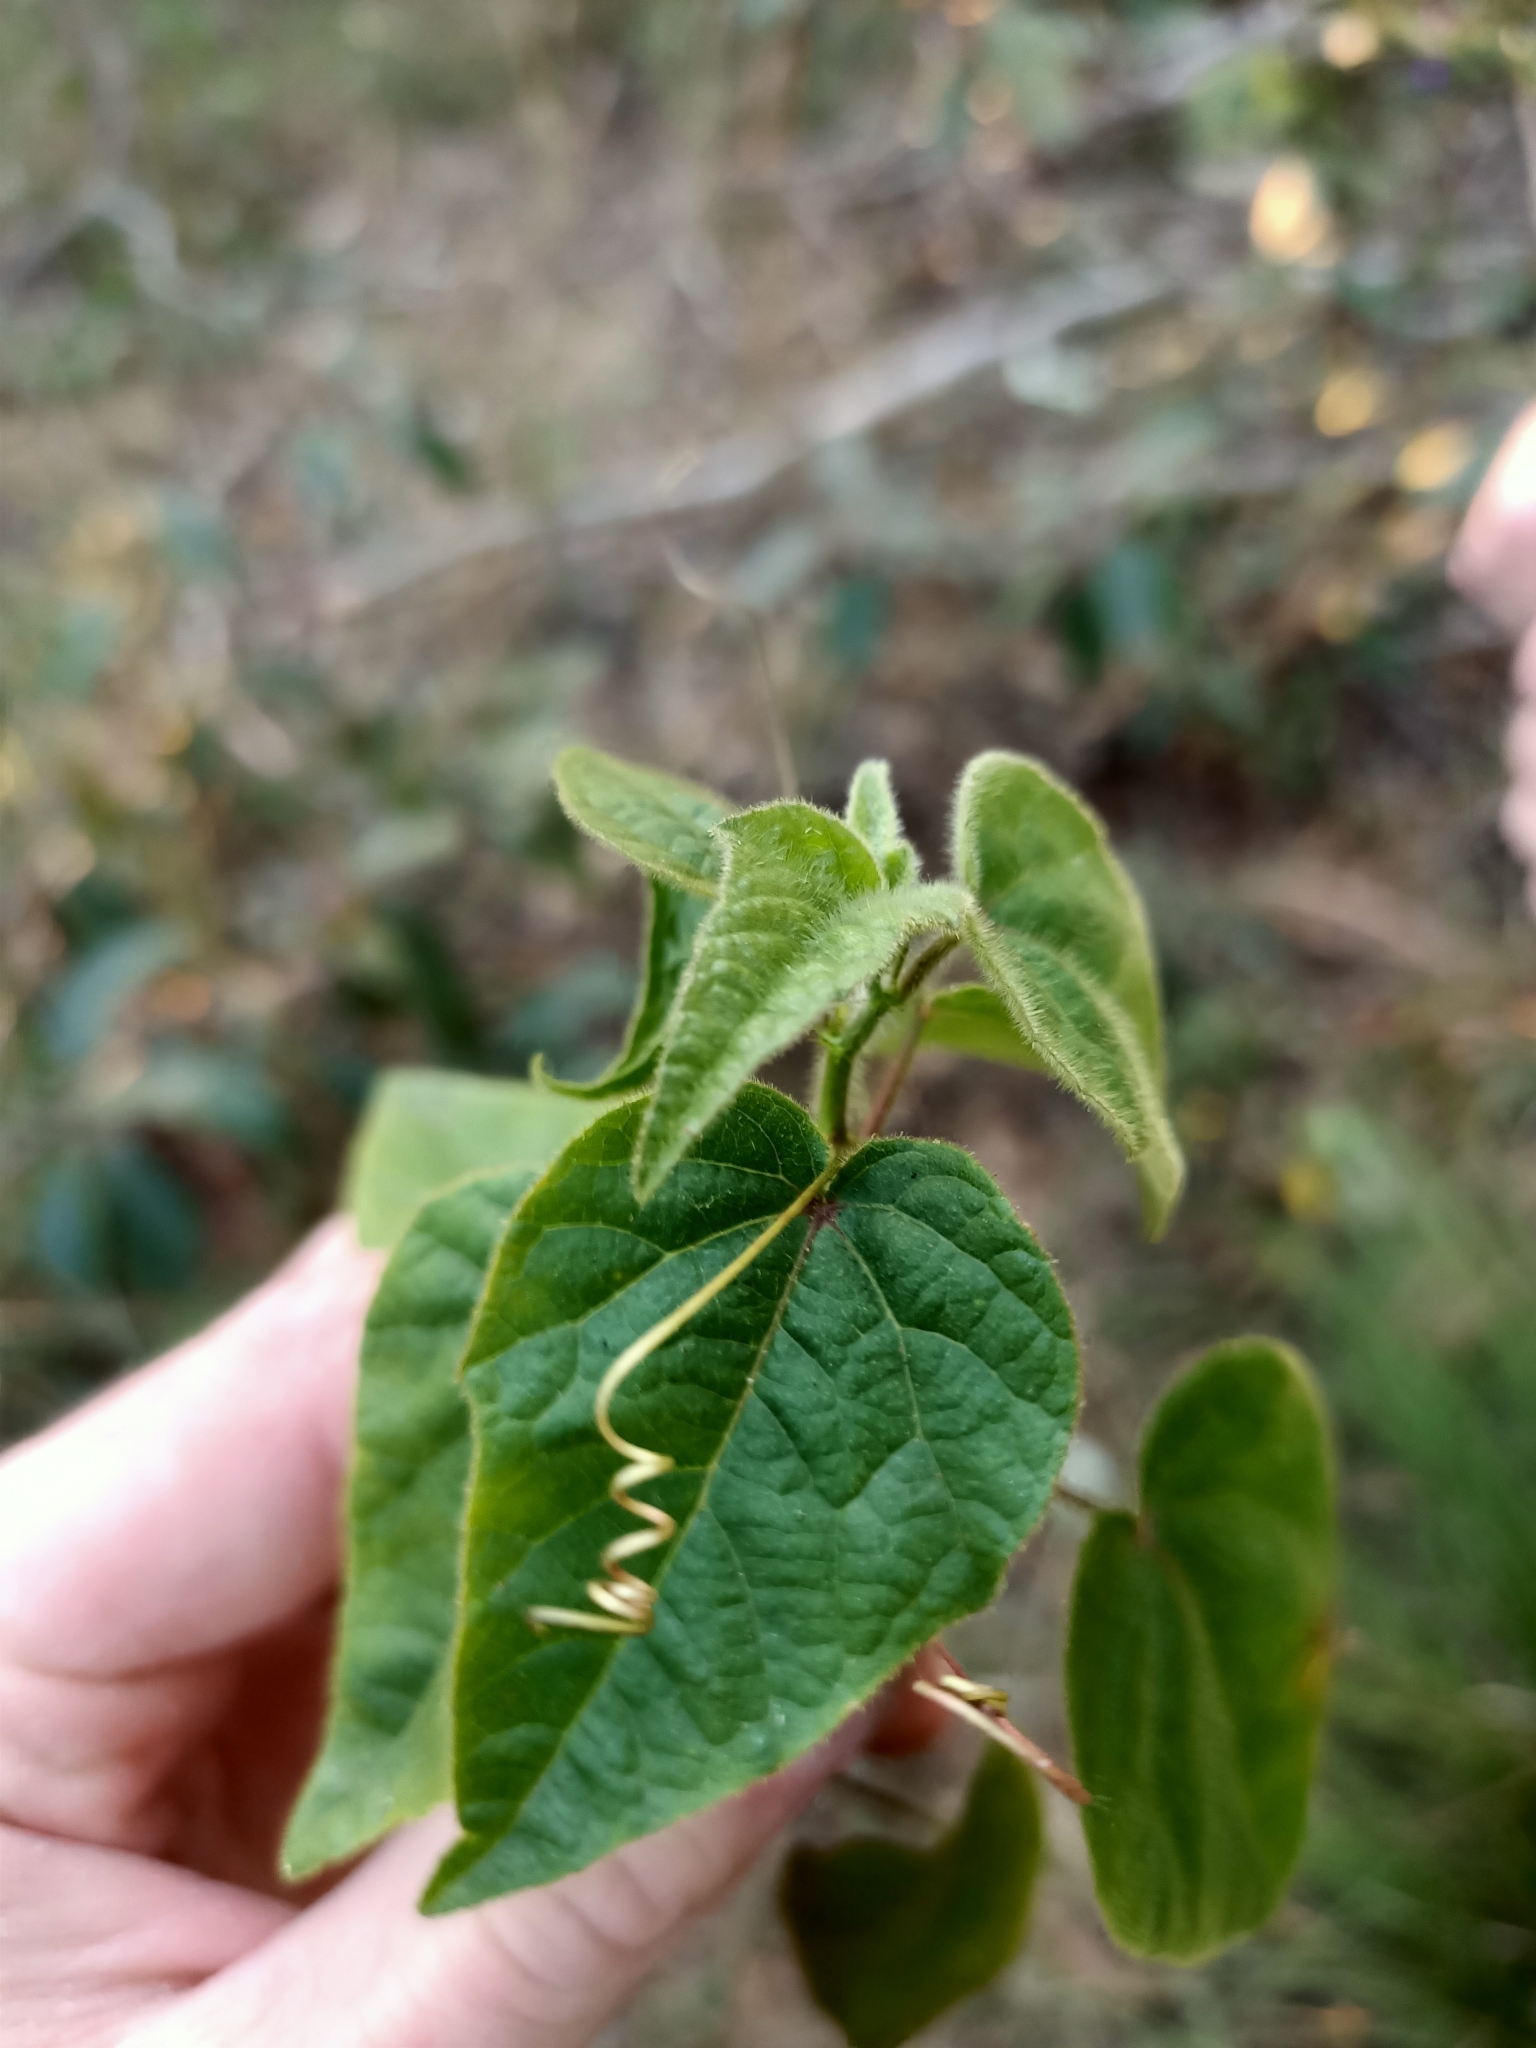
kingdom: Plantae
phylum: Tracheophyta
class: Magnoliopsida
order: Malpighiales
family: Passifloraceae
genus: Passiflora
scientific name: Passiflora foetida
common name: Fetid passionflower
